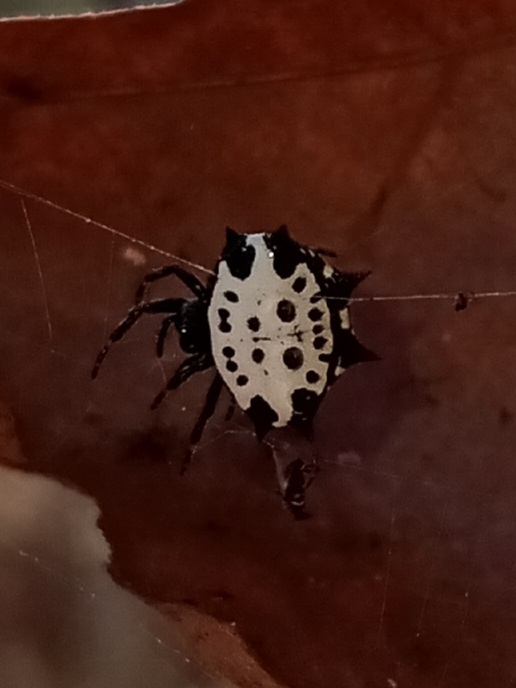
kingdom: Animalia
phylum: Arthropoda
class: Arachnida
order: Araneae
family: Araneidae
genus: Gasteracantha
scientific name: Gasteracantha cancriformis
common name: Orb weavers
